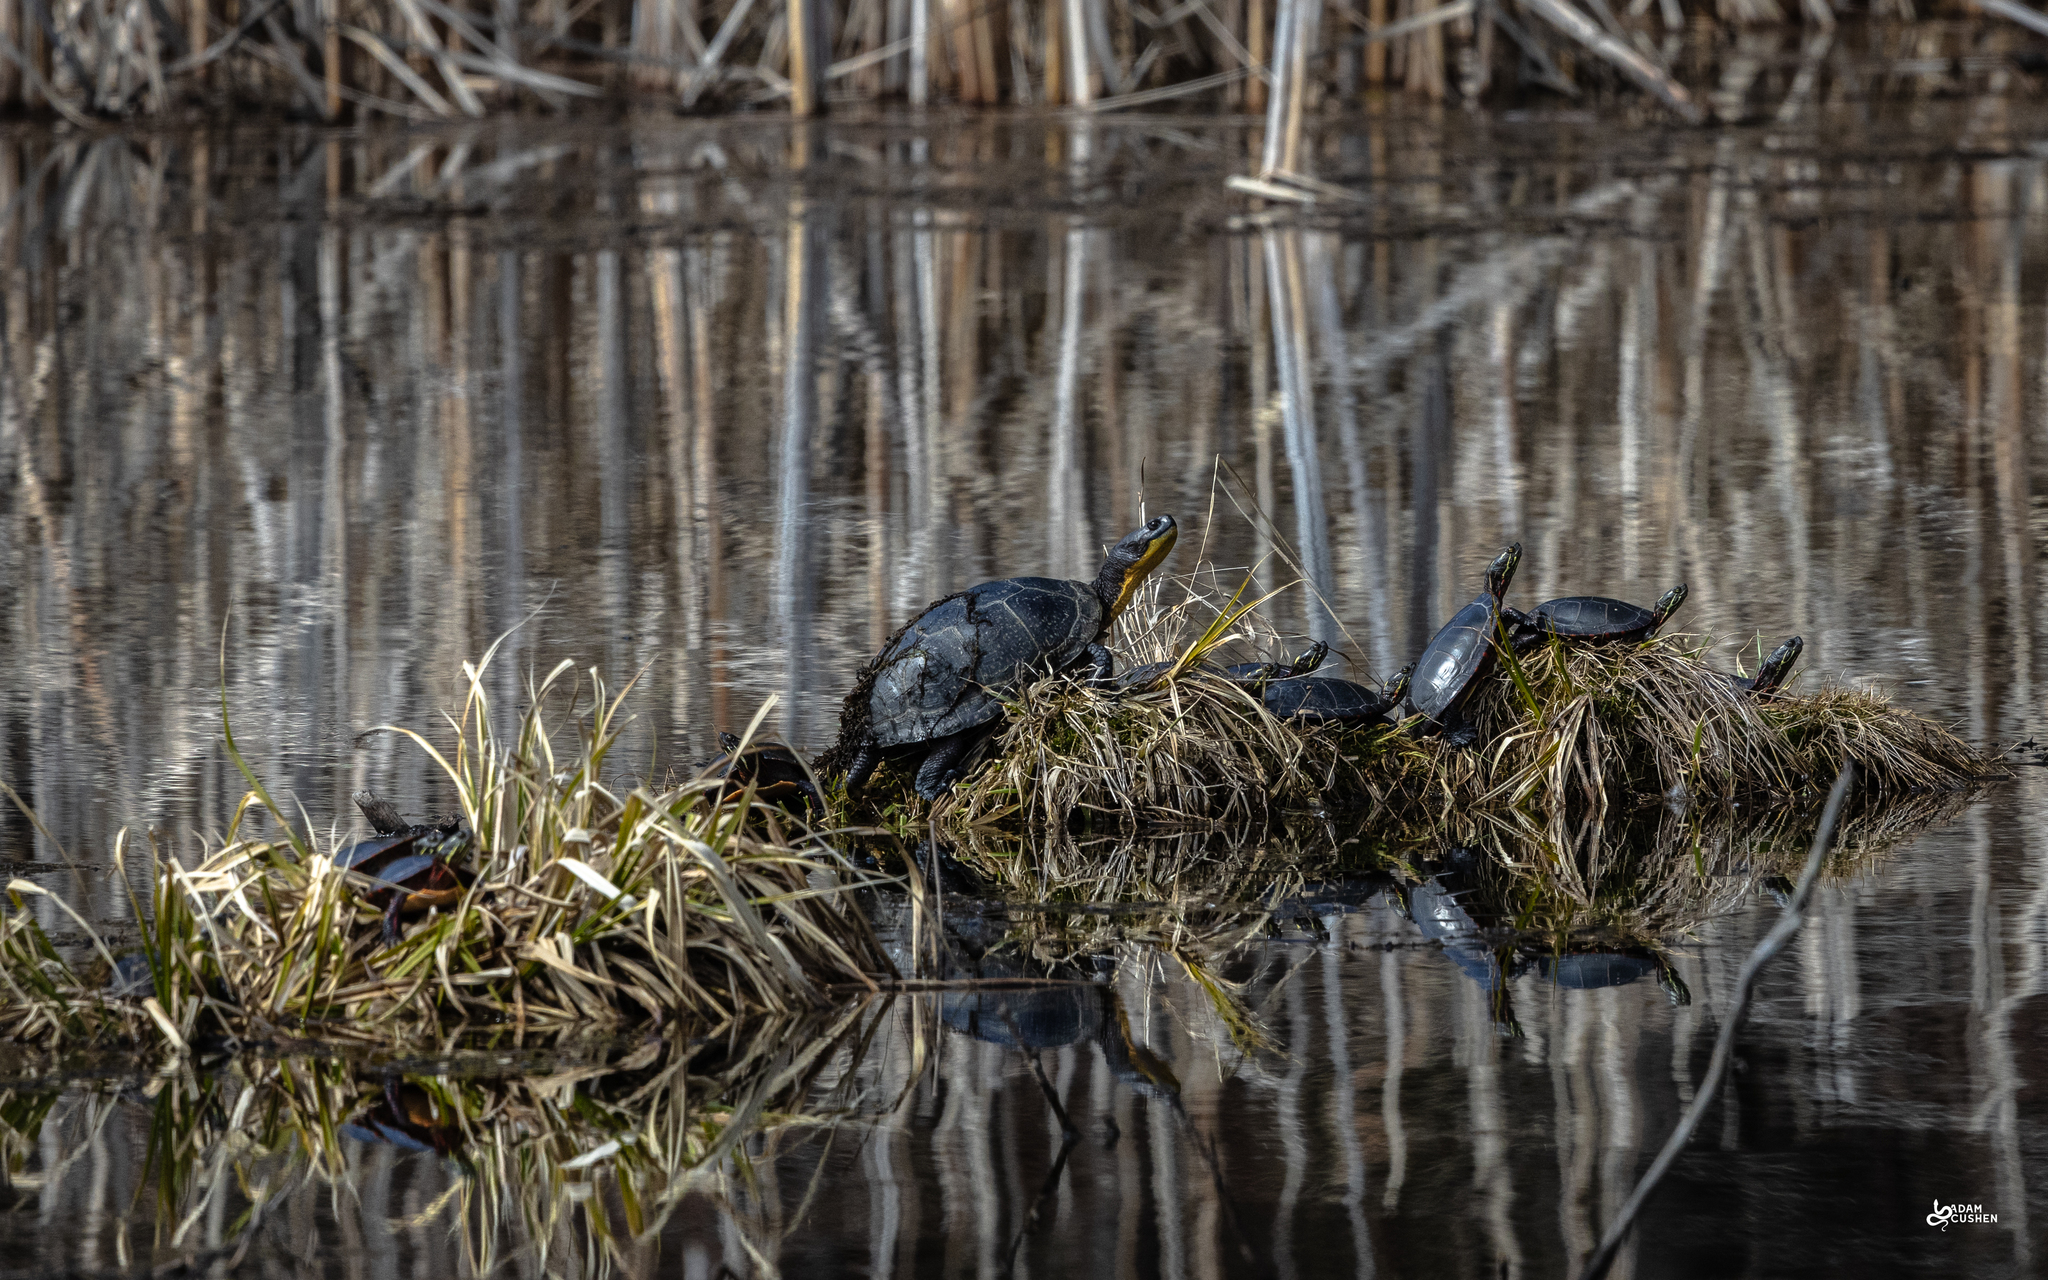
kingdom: Animalia
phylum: Chordata
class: Testudines
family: Emydidae
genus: Emys
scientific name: Emys blandingii
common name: Blanding's turtle
